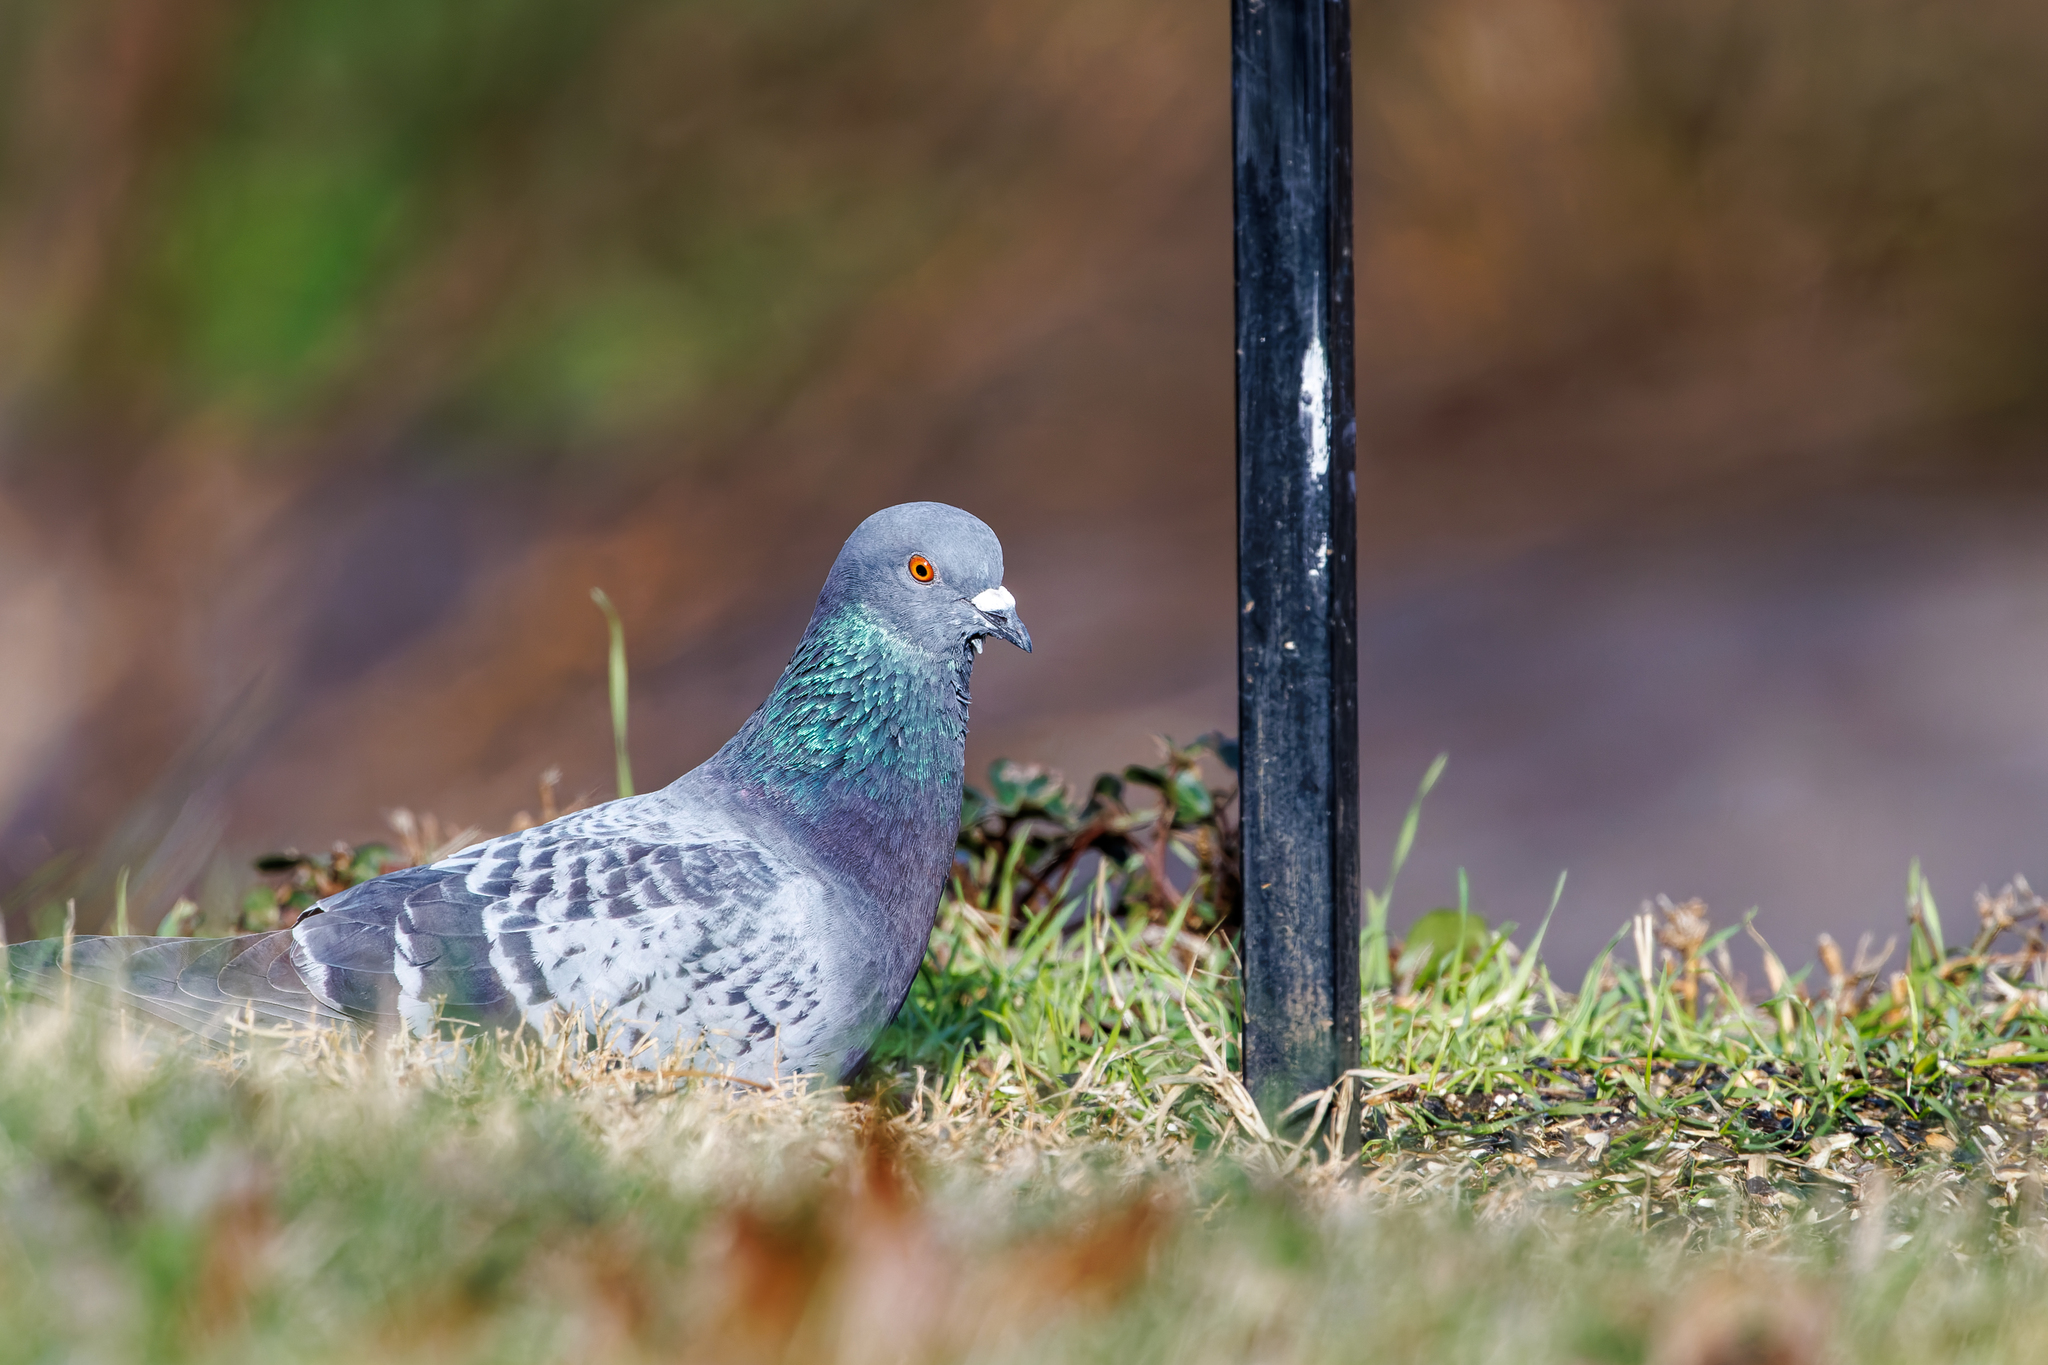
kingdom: Animalia
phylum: Chordata
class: Aves
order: Columbiformes
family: Columbidae
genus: Columba
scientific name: Columba livia
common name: Rock pigeon
